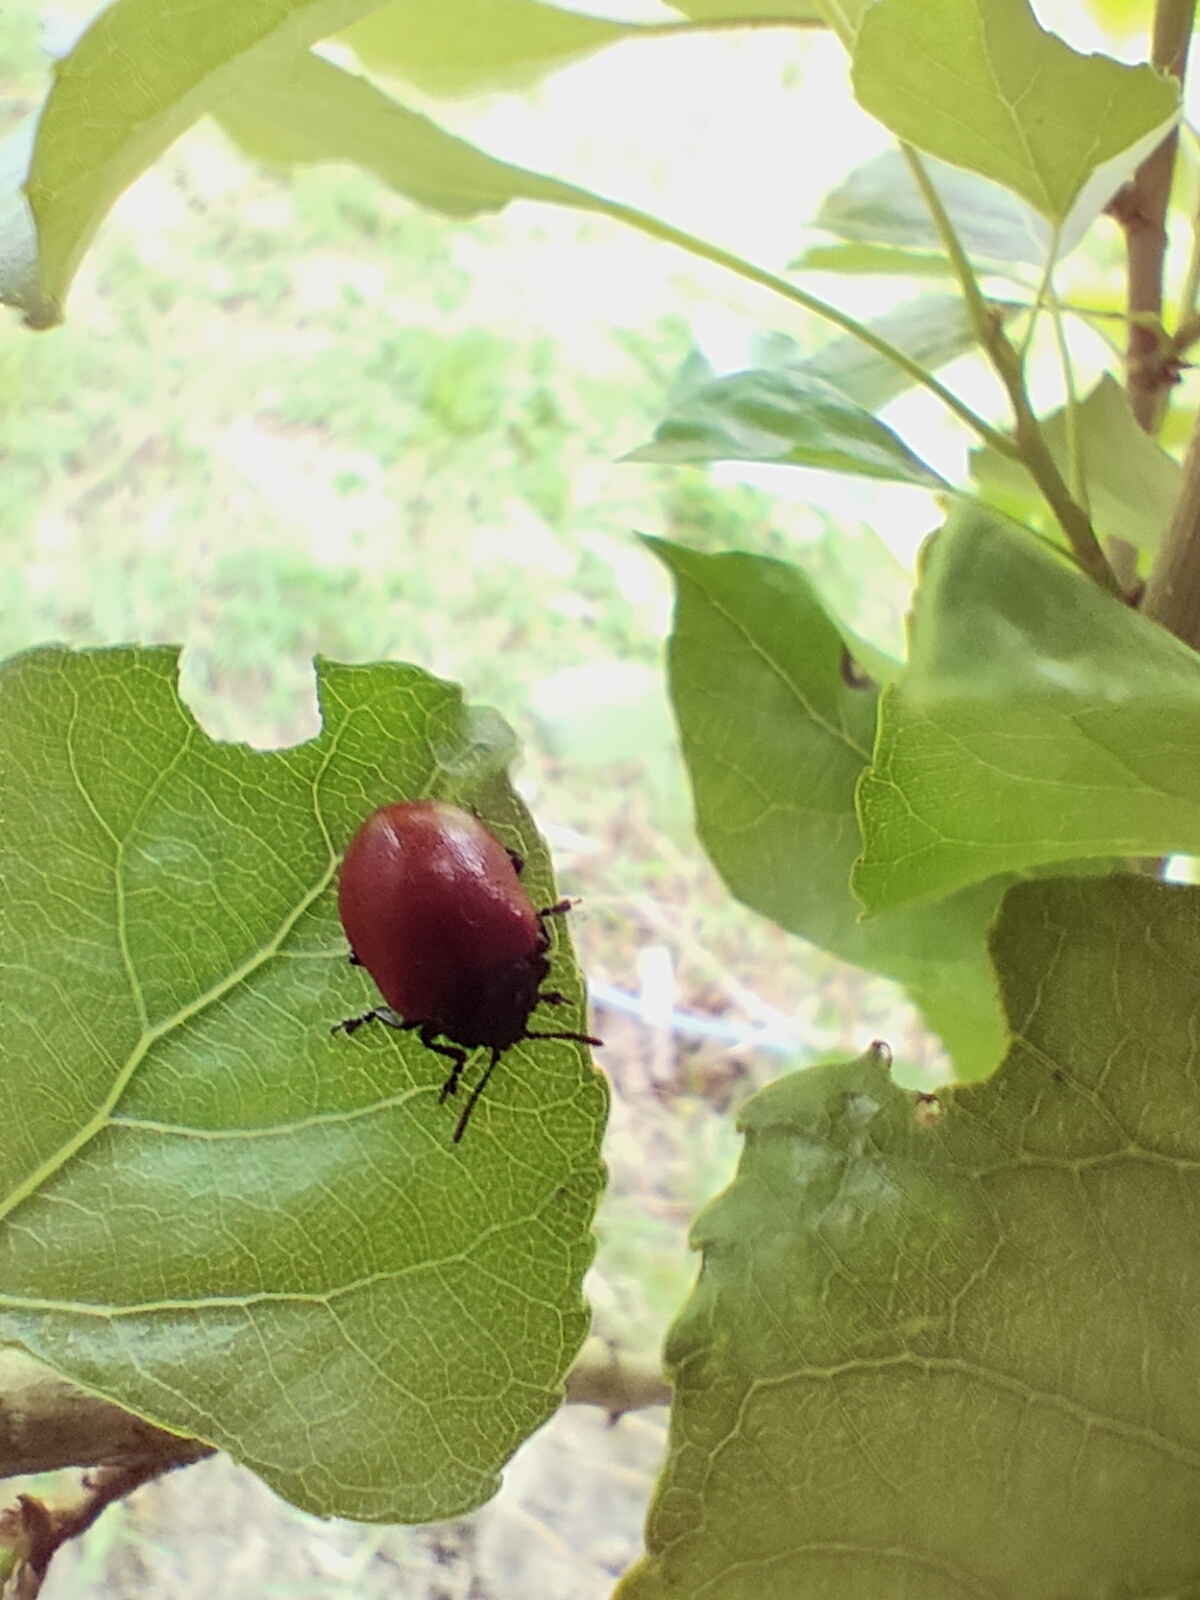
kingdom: Animalia
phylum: Arthropoda
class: Insecta
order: Coleoptera
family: Chrysomelidae
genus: Chrysomela
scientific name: Chrysomela populi
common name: Red poplar leaf beetle
